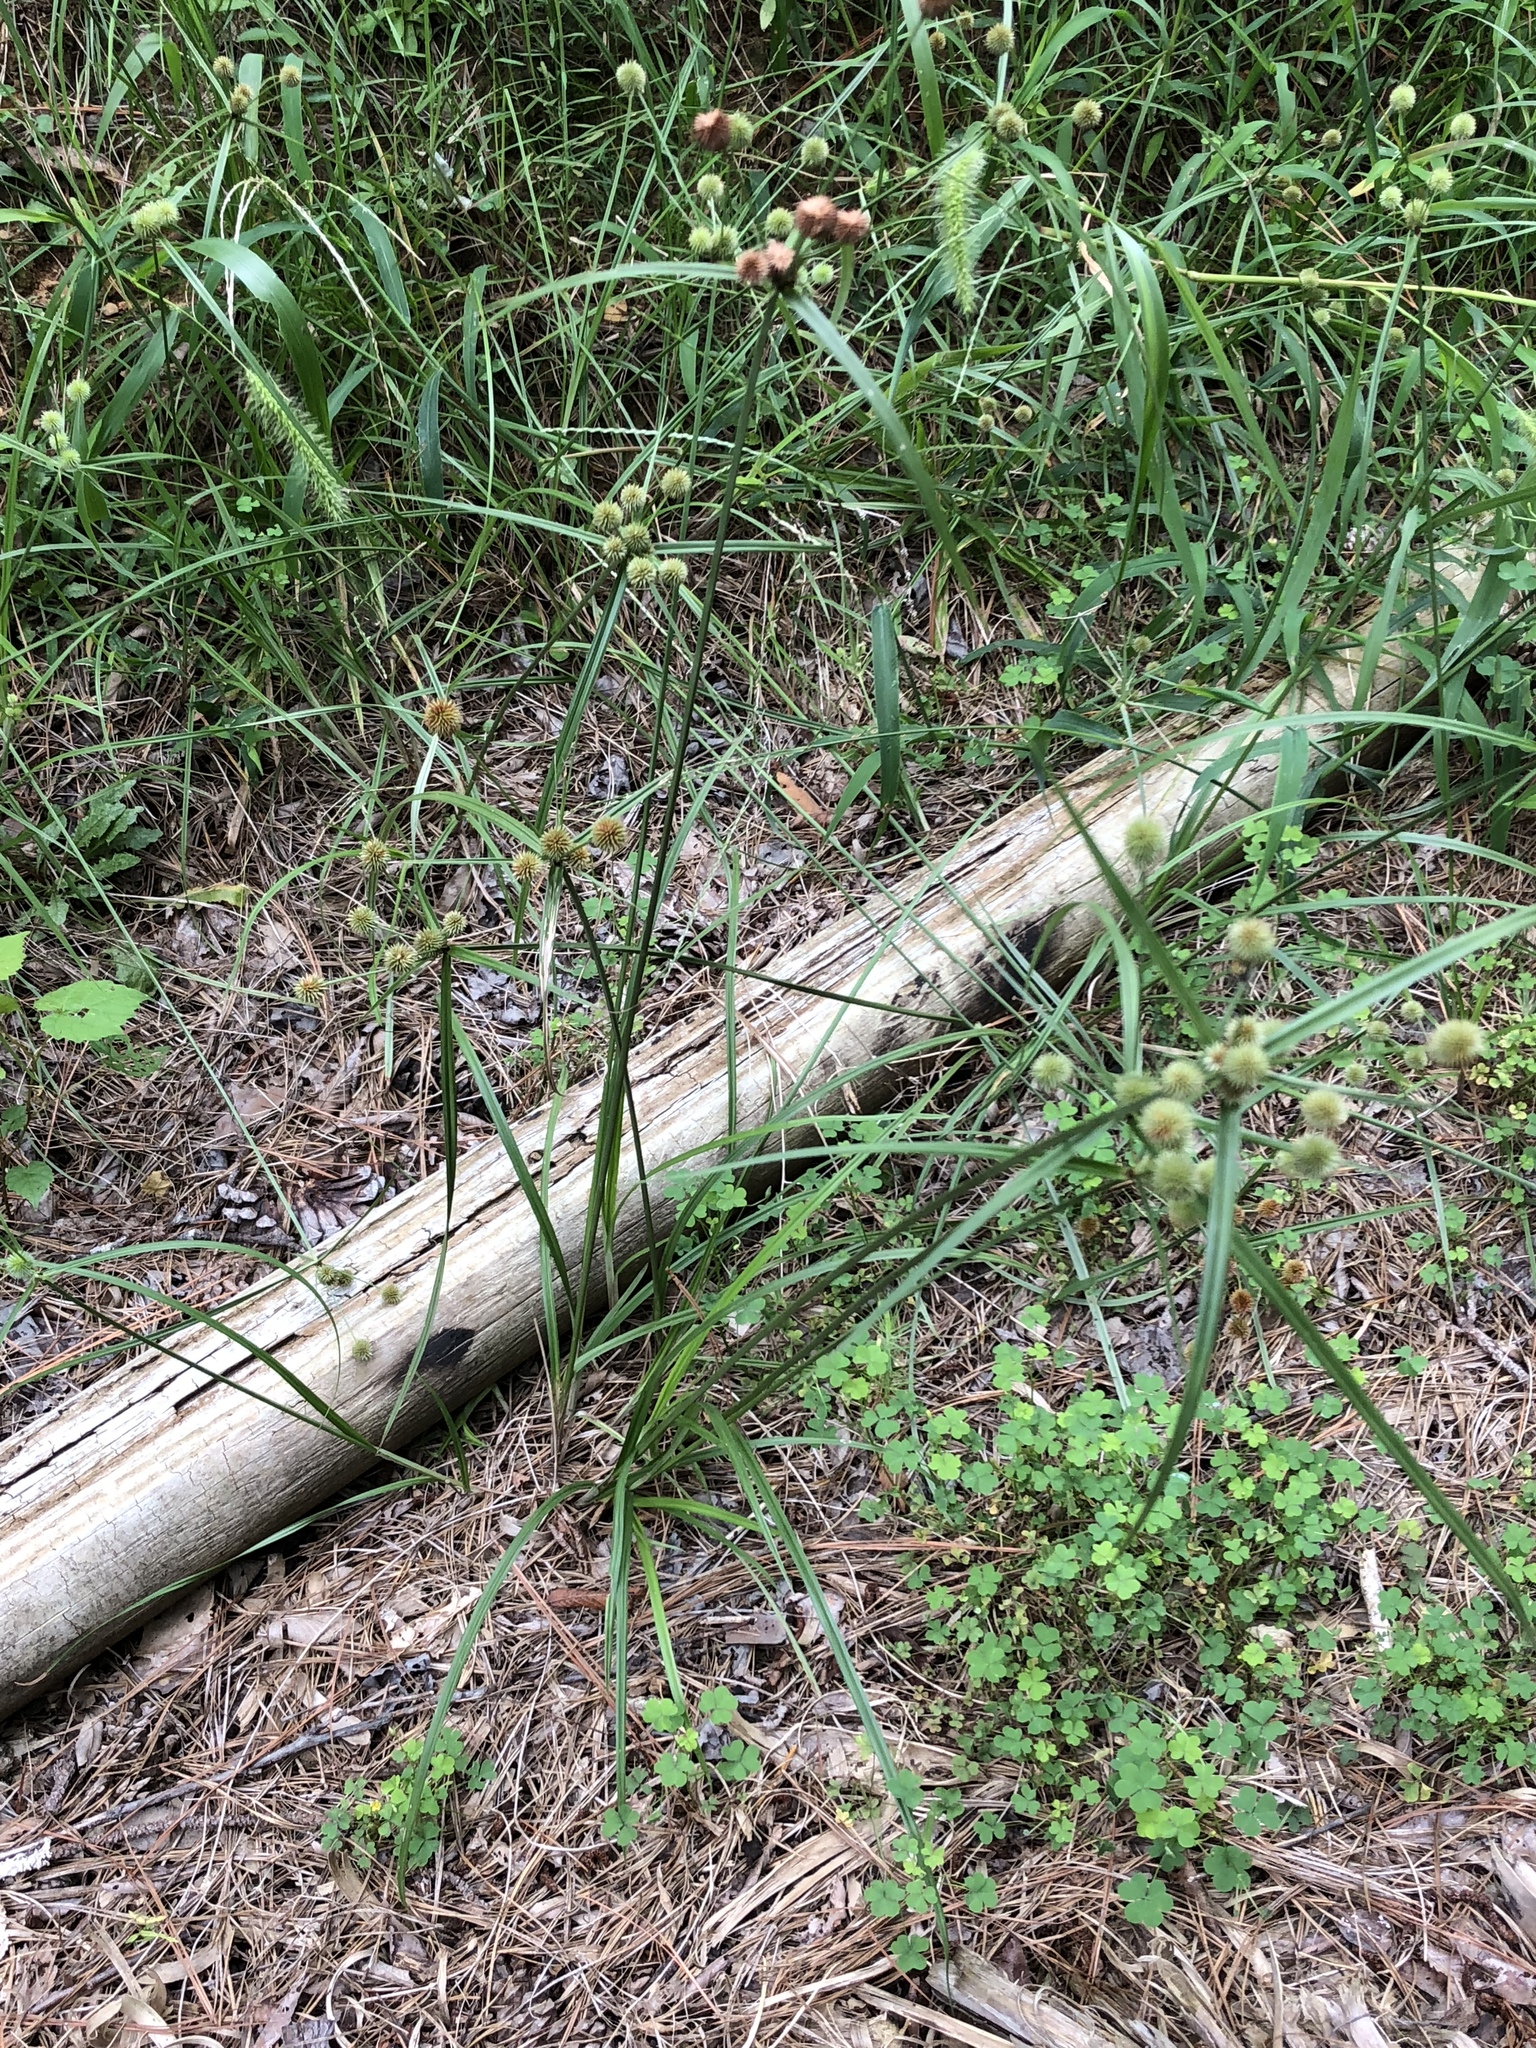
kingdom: Plantae
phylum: Tracheophyta
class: Liliopsida
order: Poales
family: Cyperaceae
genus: Cyperus
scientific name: Cyperus echinatus
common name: Teasel sedge
